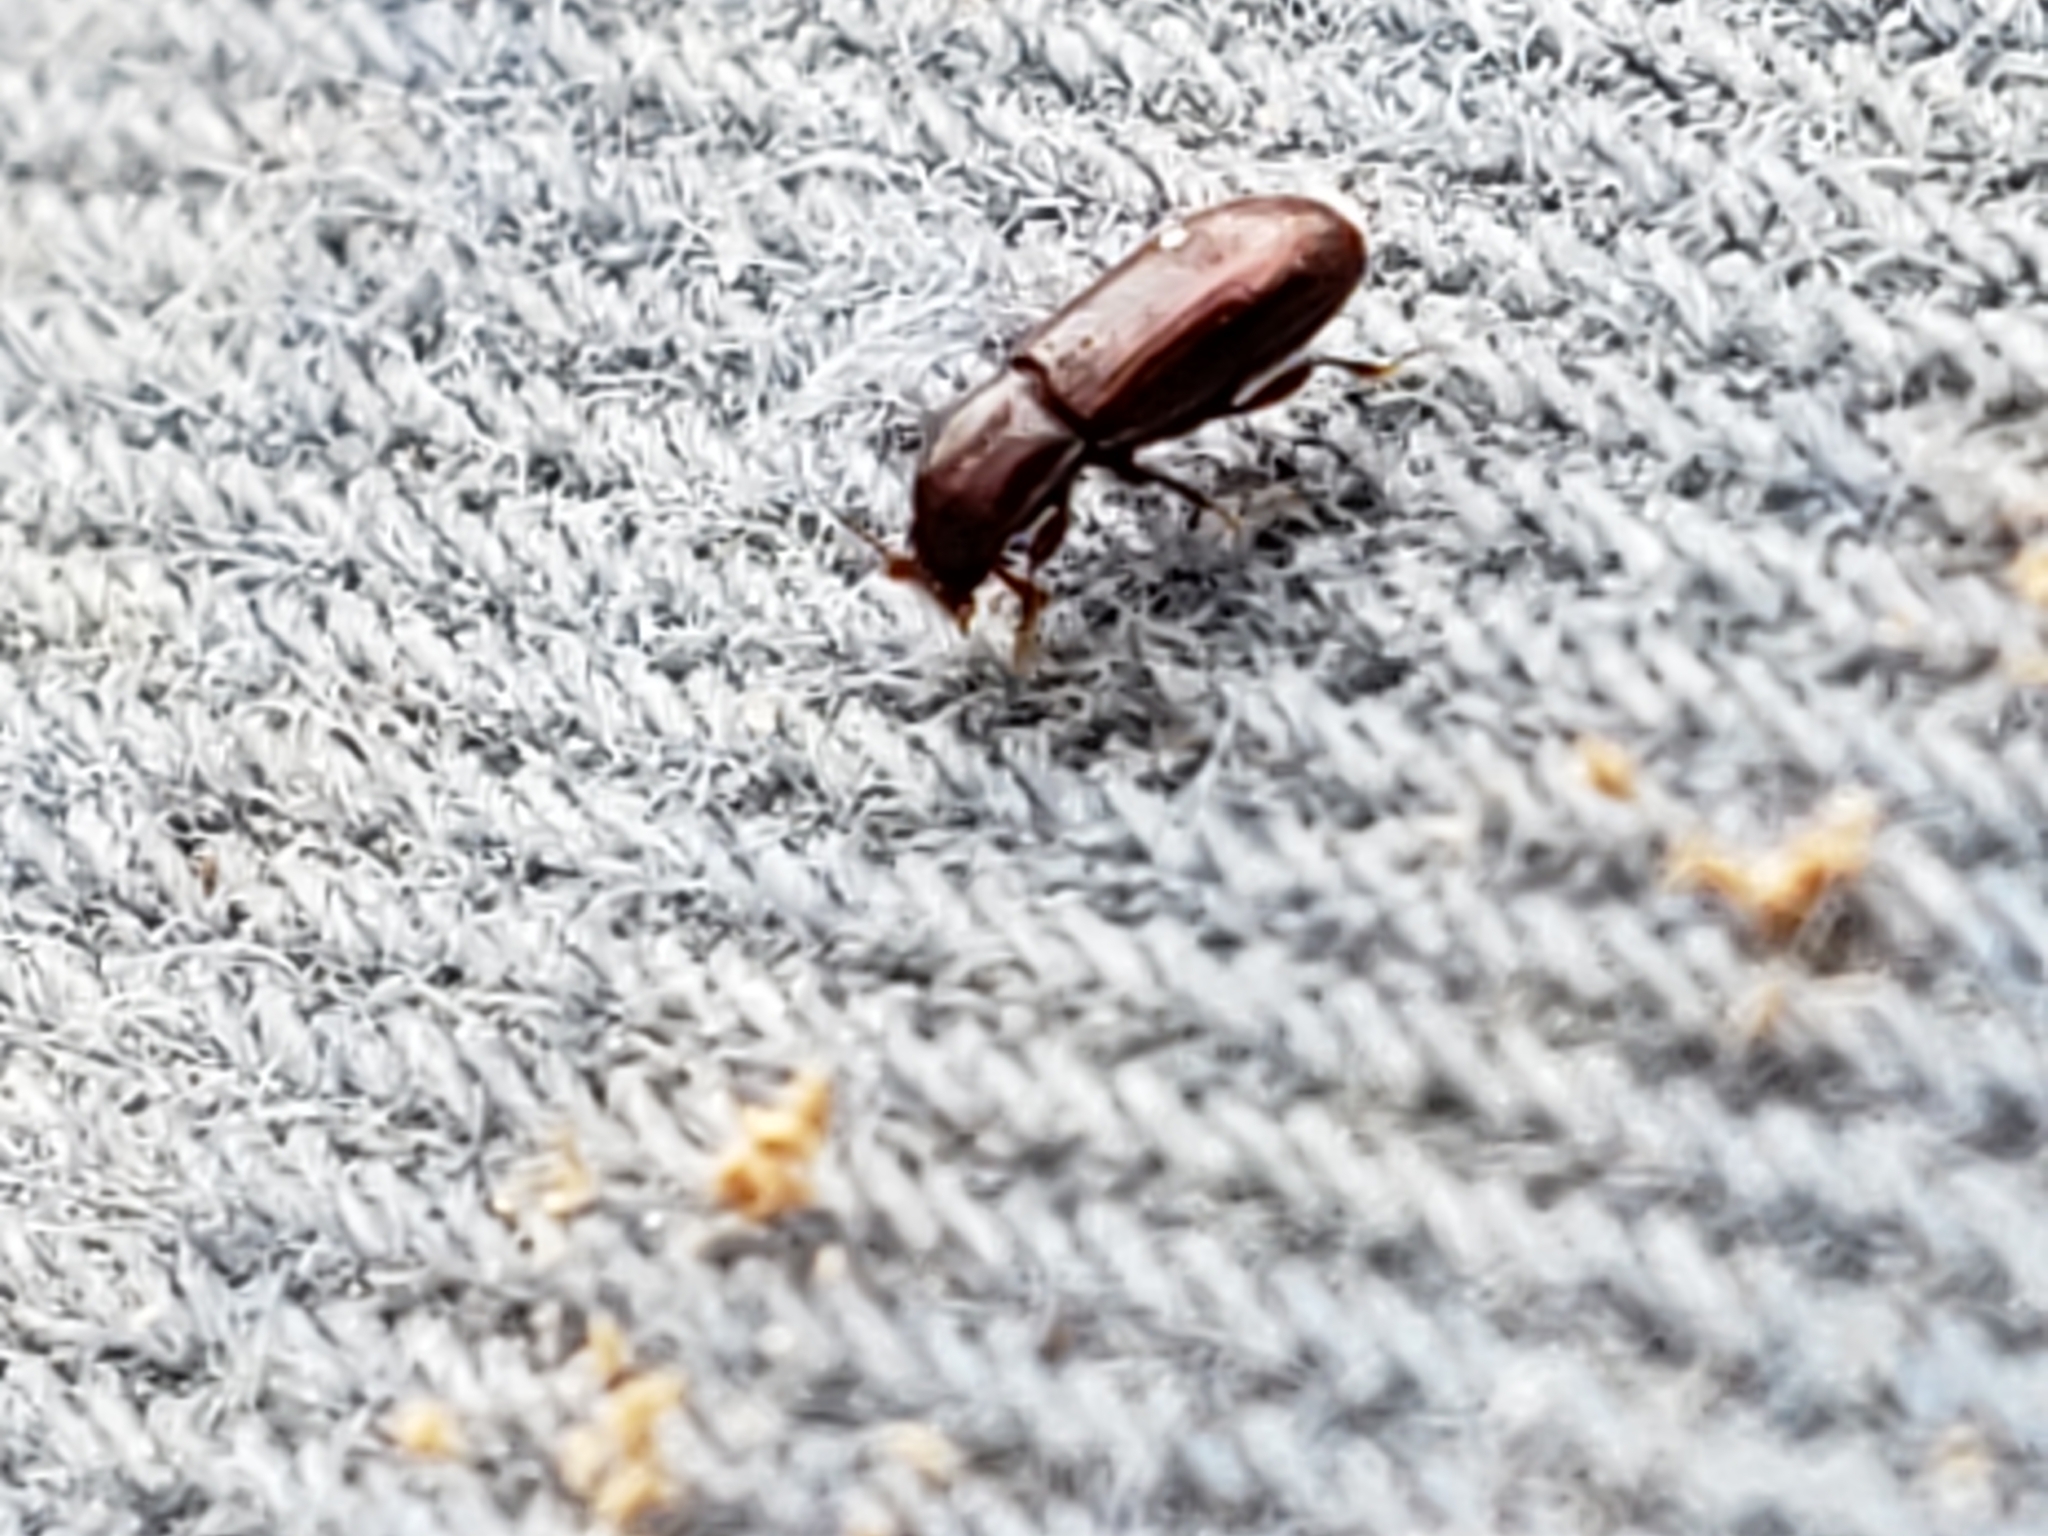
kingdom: Animalia
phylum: Arthropoda
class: Insecta
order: Coleoptera
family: Cerylonidae
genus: Philothermus
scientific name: Philothermus glabriculus
